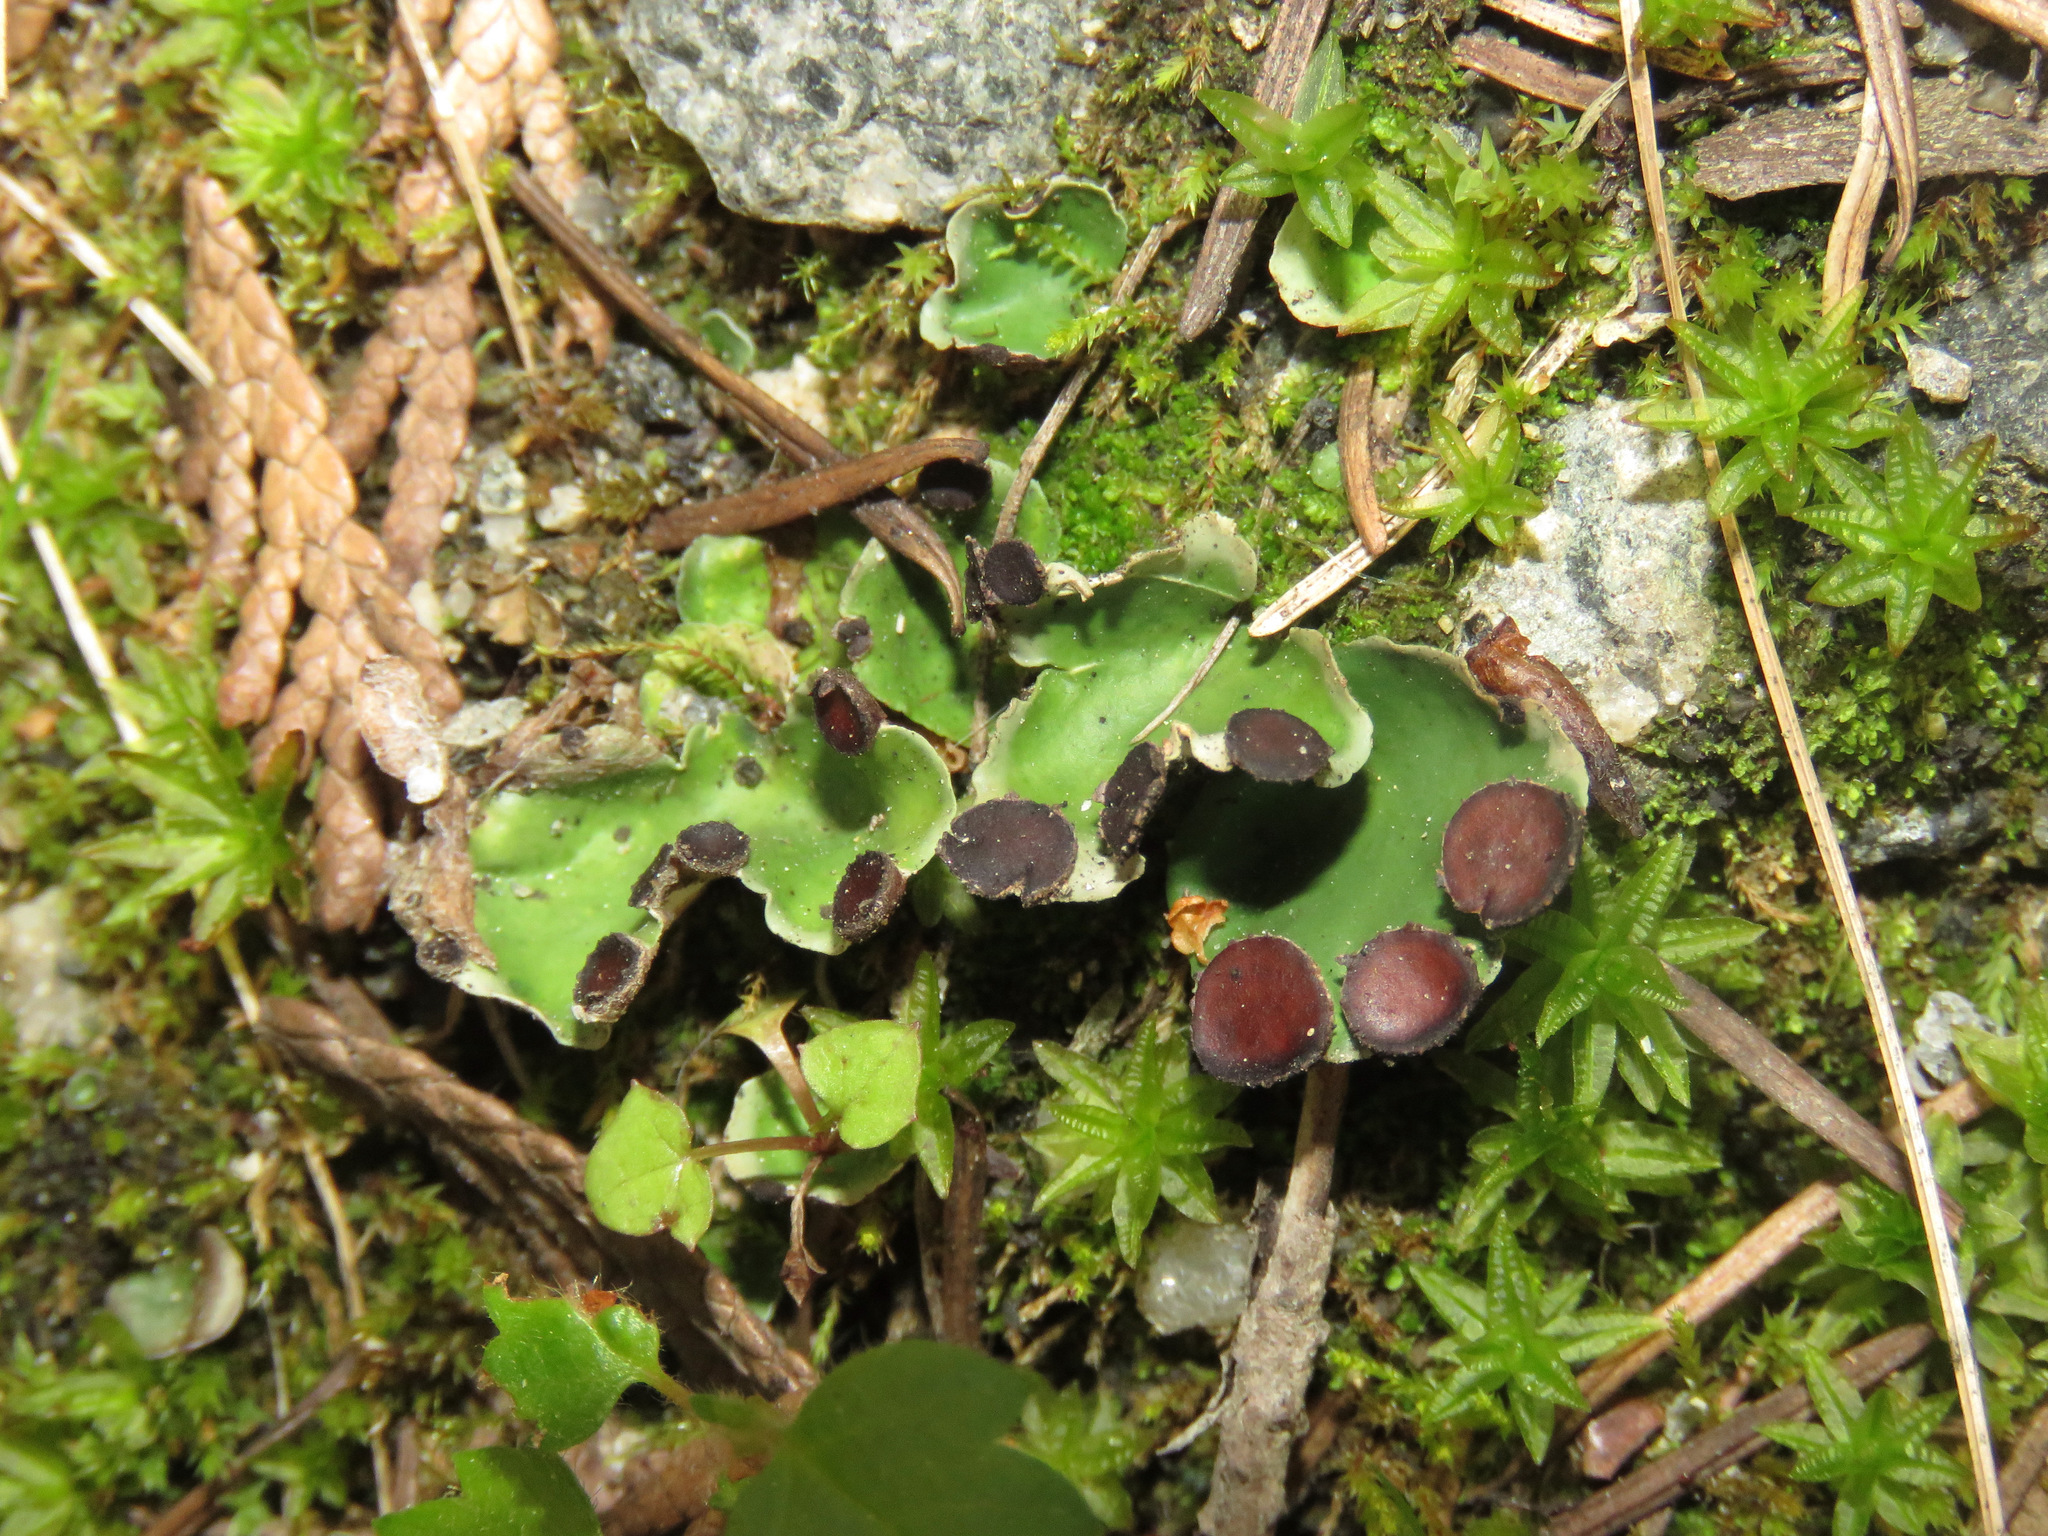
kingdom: Fungi
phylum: Ascomycota
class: Lecanoromycetes
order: Peltigerales
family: Peltigeraceae
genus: Peltigera
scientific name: Peltigera venosa
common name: Pixie gowns lichen
